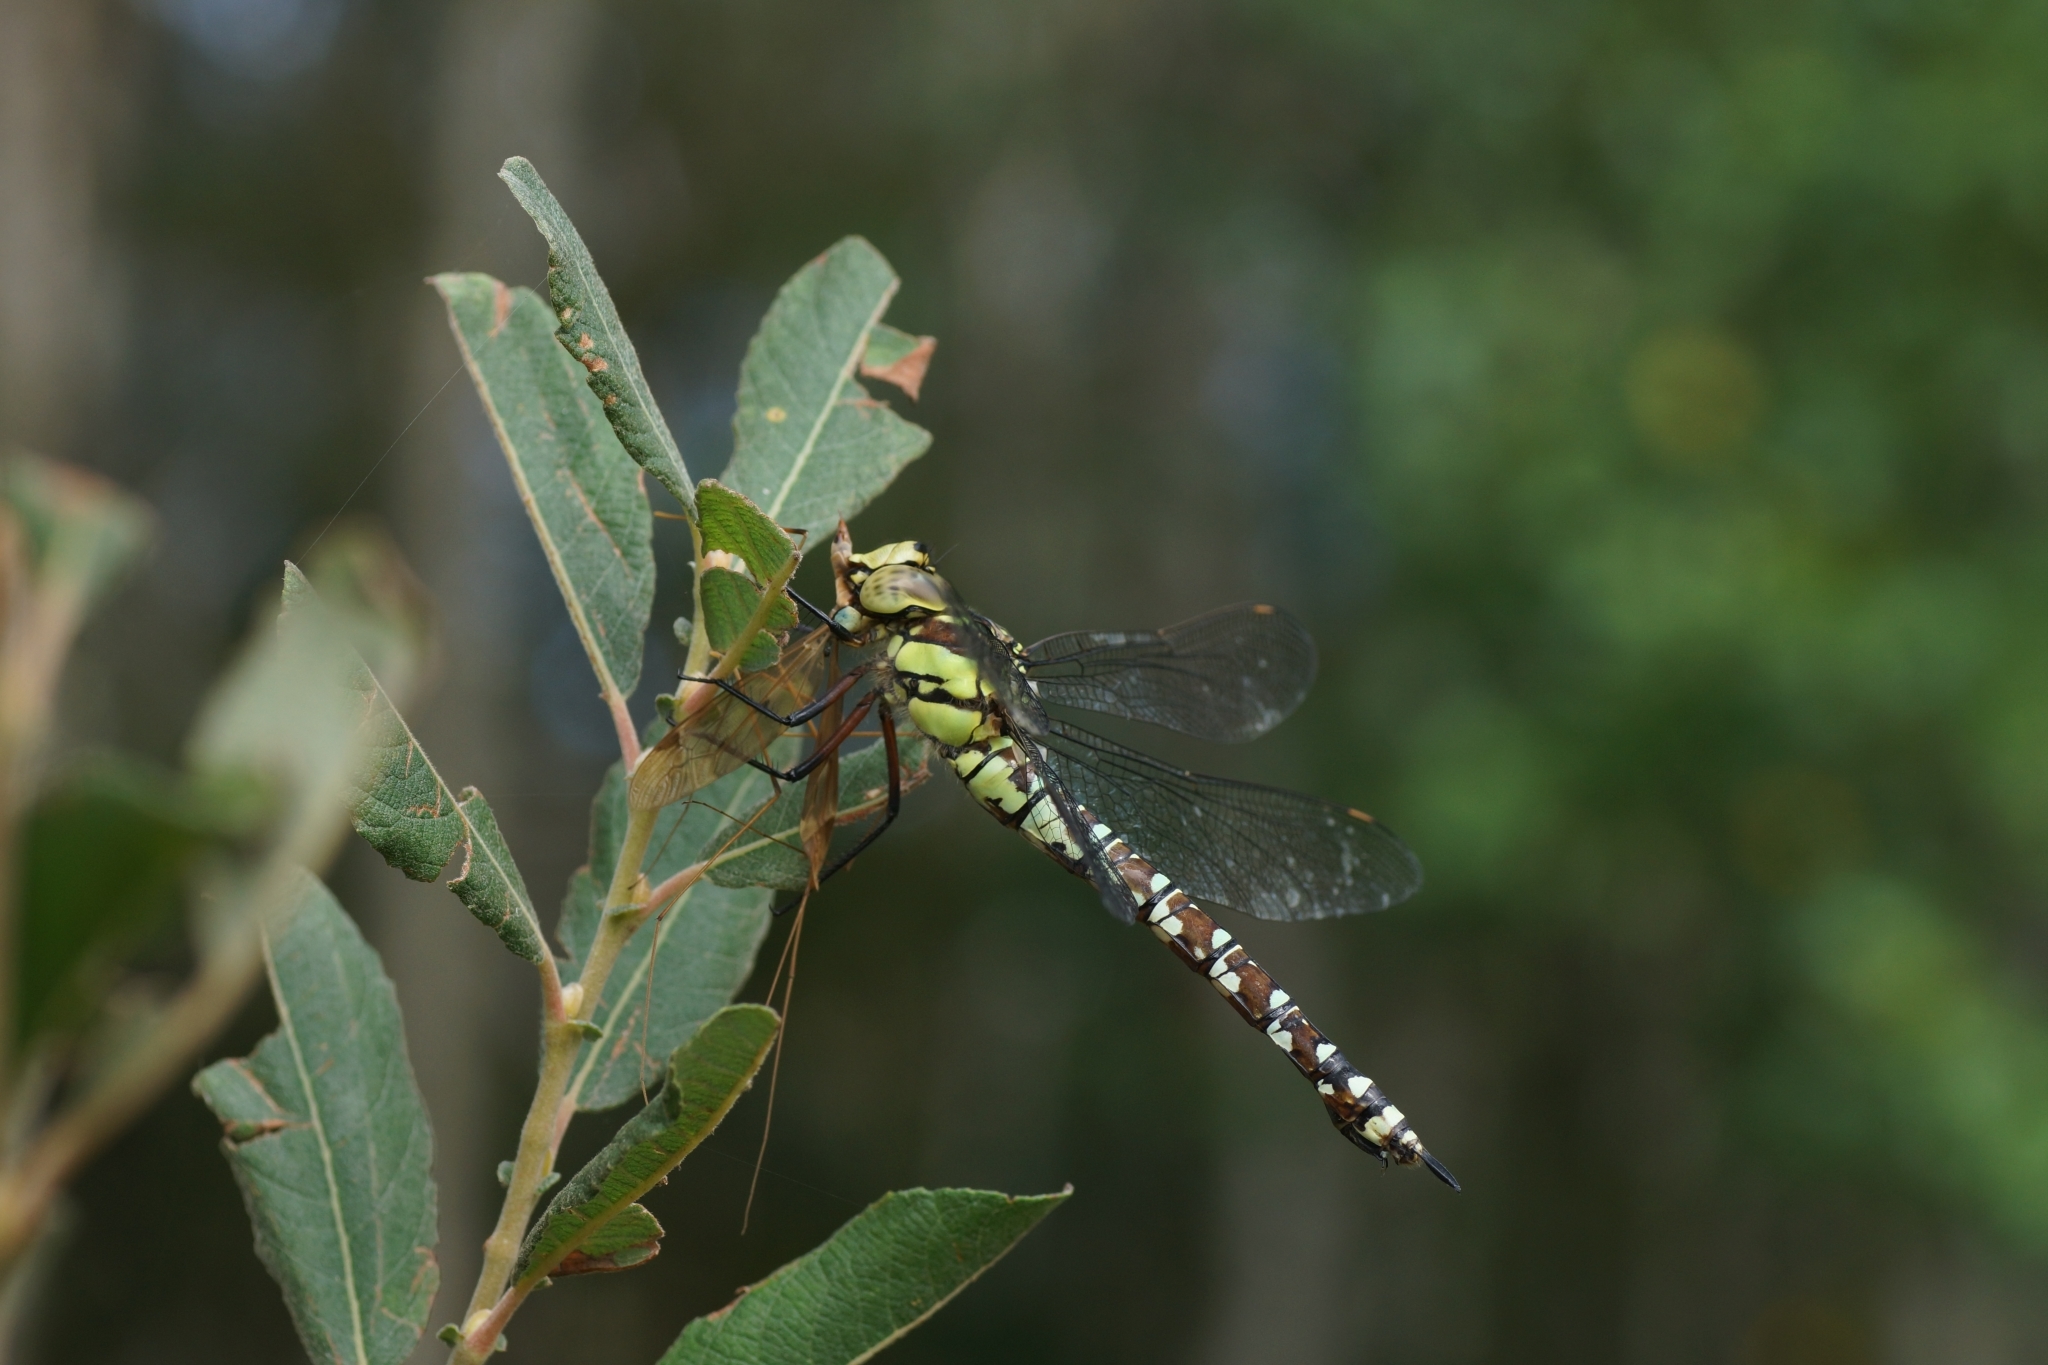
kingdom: Animalia
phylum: Arthropoda
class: Insecta
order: Odonata
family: Aeshnidae
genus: Aeshna
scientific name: Aeshna cyanea
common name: Southern hawker
